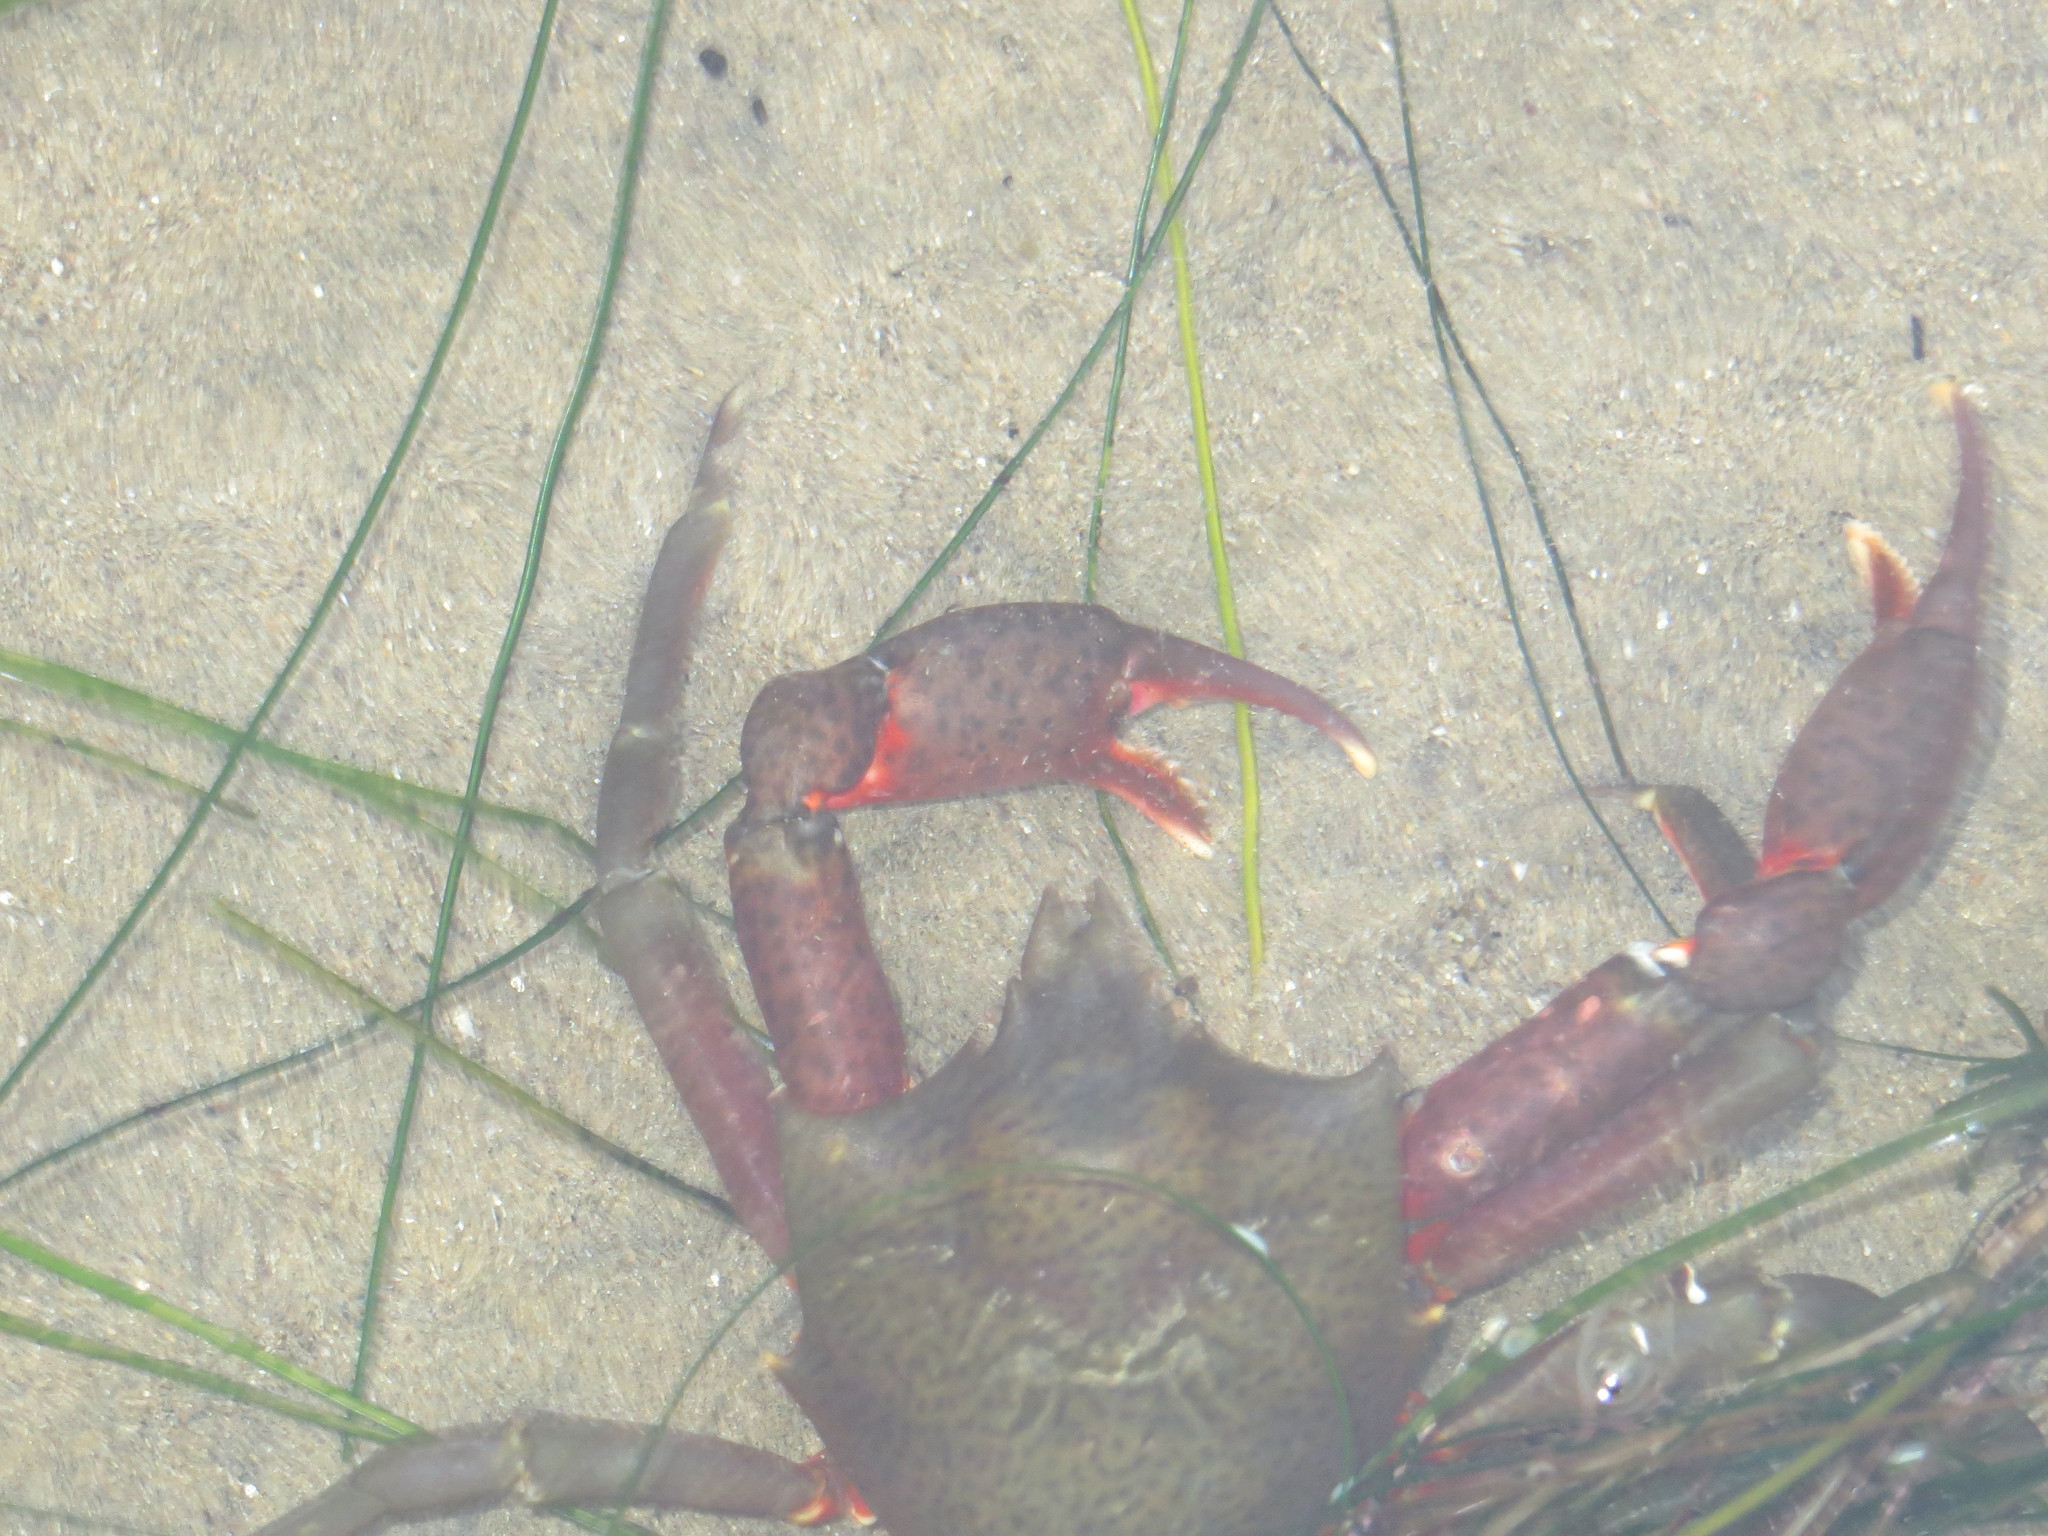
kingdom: Animalia
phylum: Arthropoda
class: Malacostraca
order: Decapoda
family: Epialtidae
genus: Pugettia
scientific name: Pugettia producta
